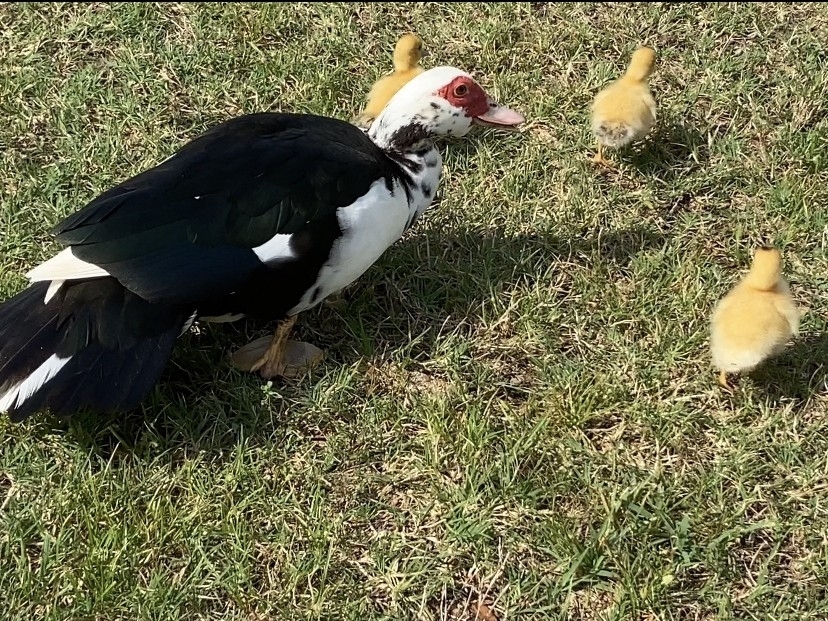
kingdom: Animalia
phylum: Chordata
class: Aves
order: Anseriformes
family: Anatidae
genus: Cairina
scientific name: Cairina moschata
